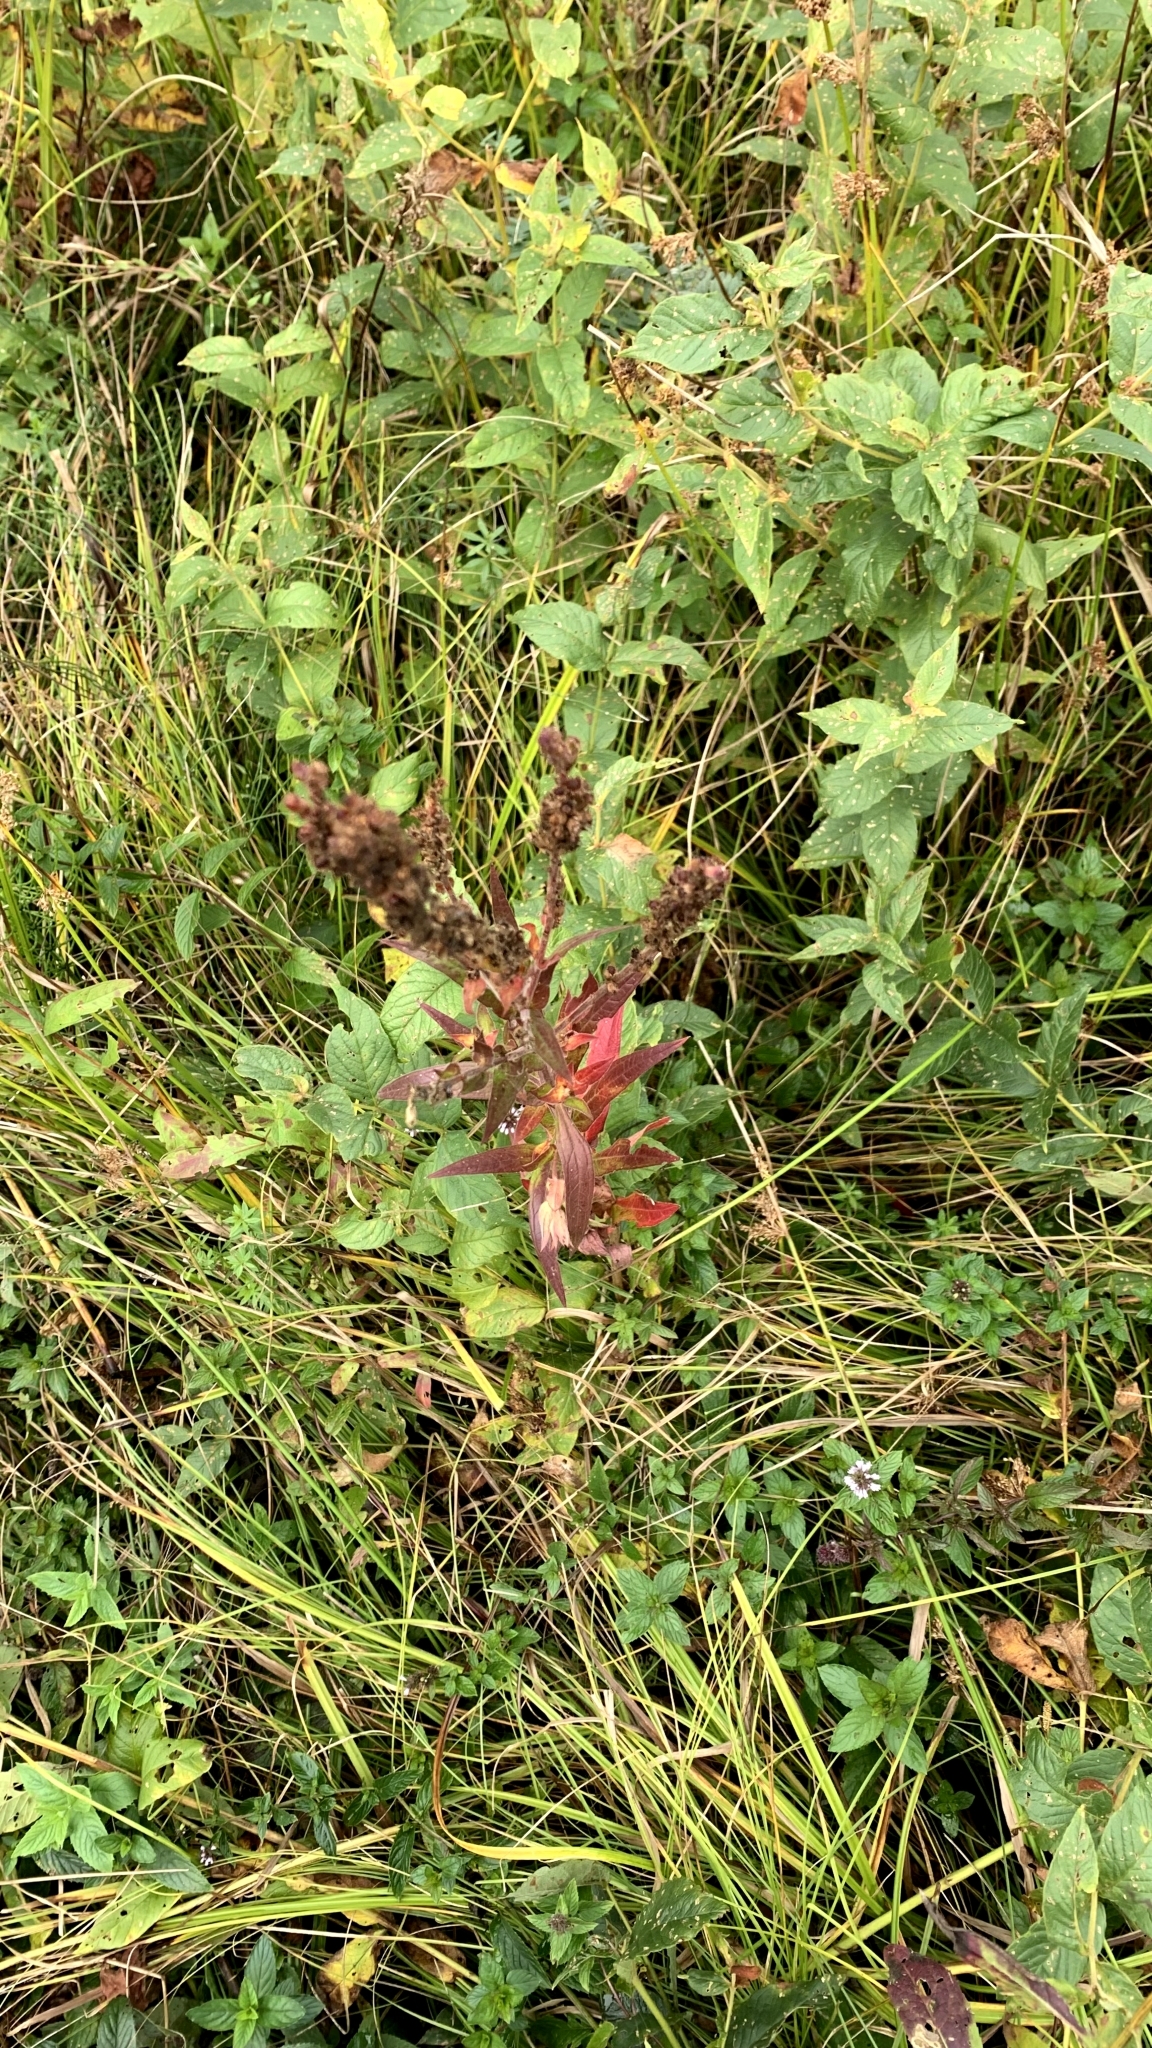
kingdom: Plantae
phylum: Tracheophyta
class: Magnoliopsida
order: Myrtales
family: Lythraceae
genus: Lythrum
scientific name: Lythrum salicaria
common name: Purple loosestrife
